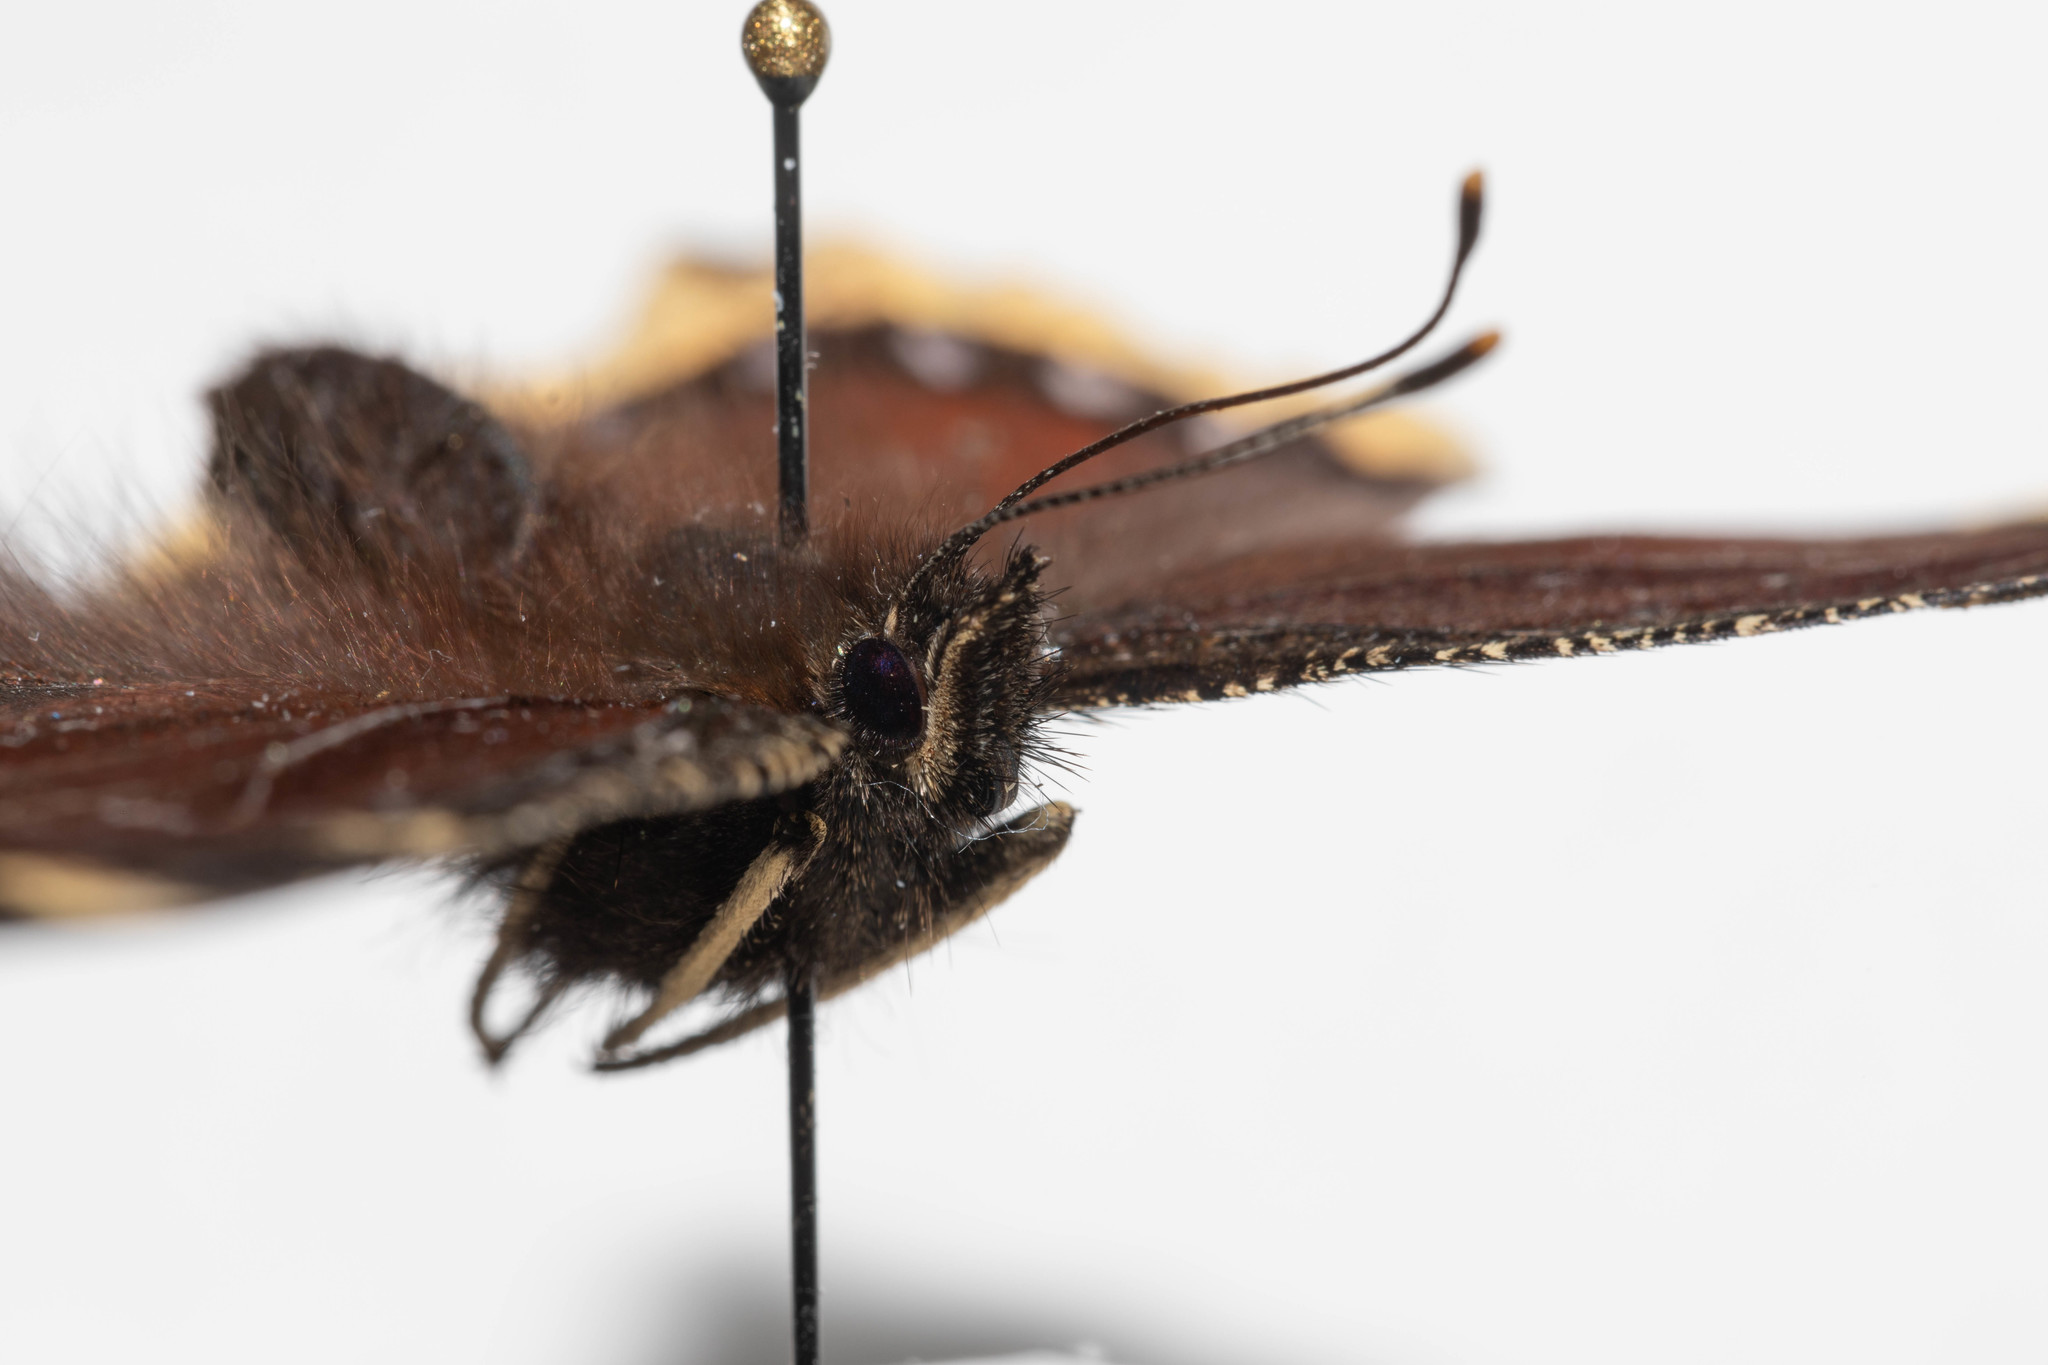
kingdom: Animalia
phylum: Arthropoda
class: Insecta
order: Lepidoptera
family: Nymphalidae
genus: Nymphalis
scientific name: Nymphalis antiopa
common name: Camberwell beauty
